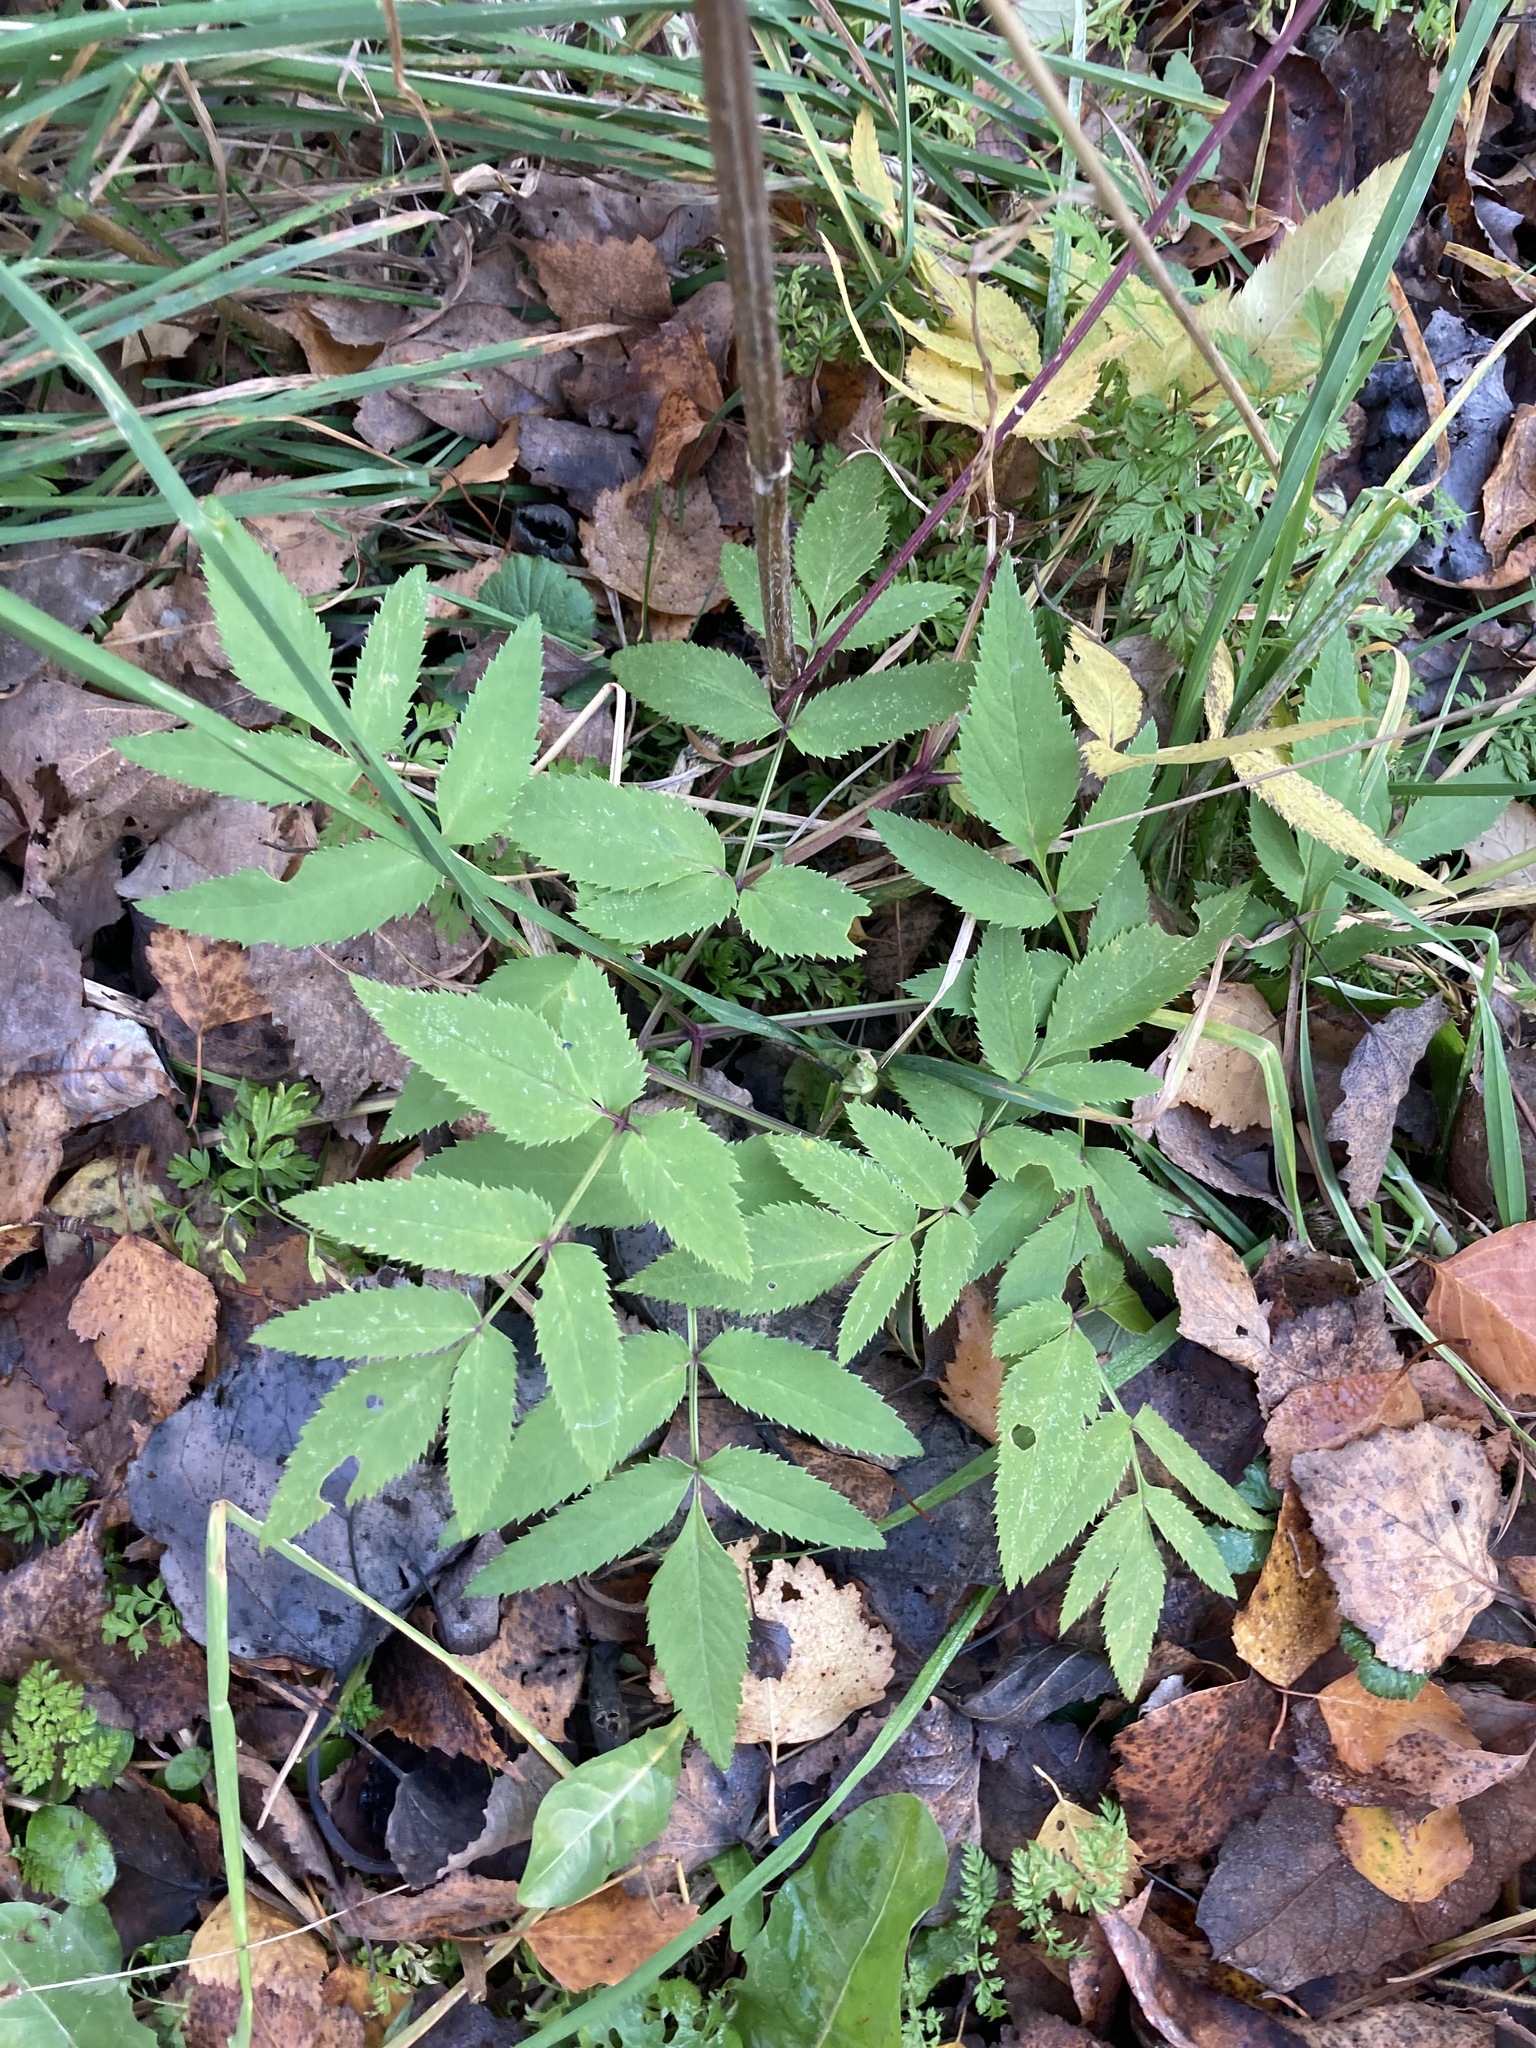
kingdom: Plantae
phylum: Tracheophyta
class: Magnoliopsida
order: Apiales
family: Apiaceae
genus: Angelica
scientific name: Angelica sylvestris
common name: Wild angelica
